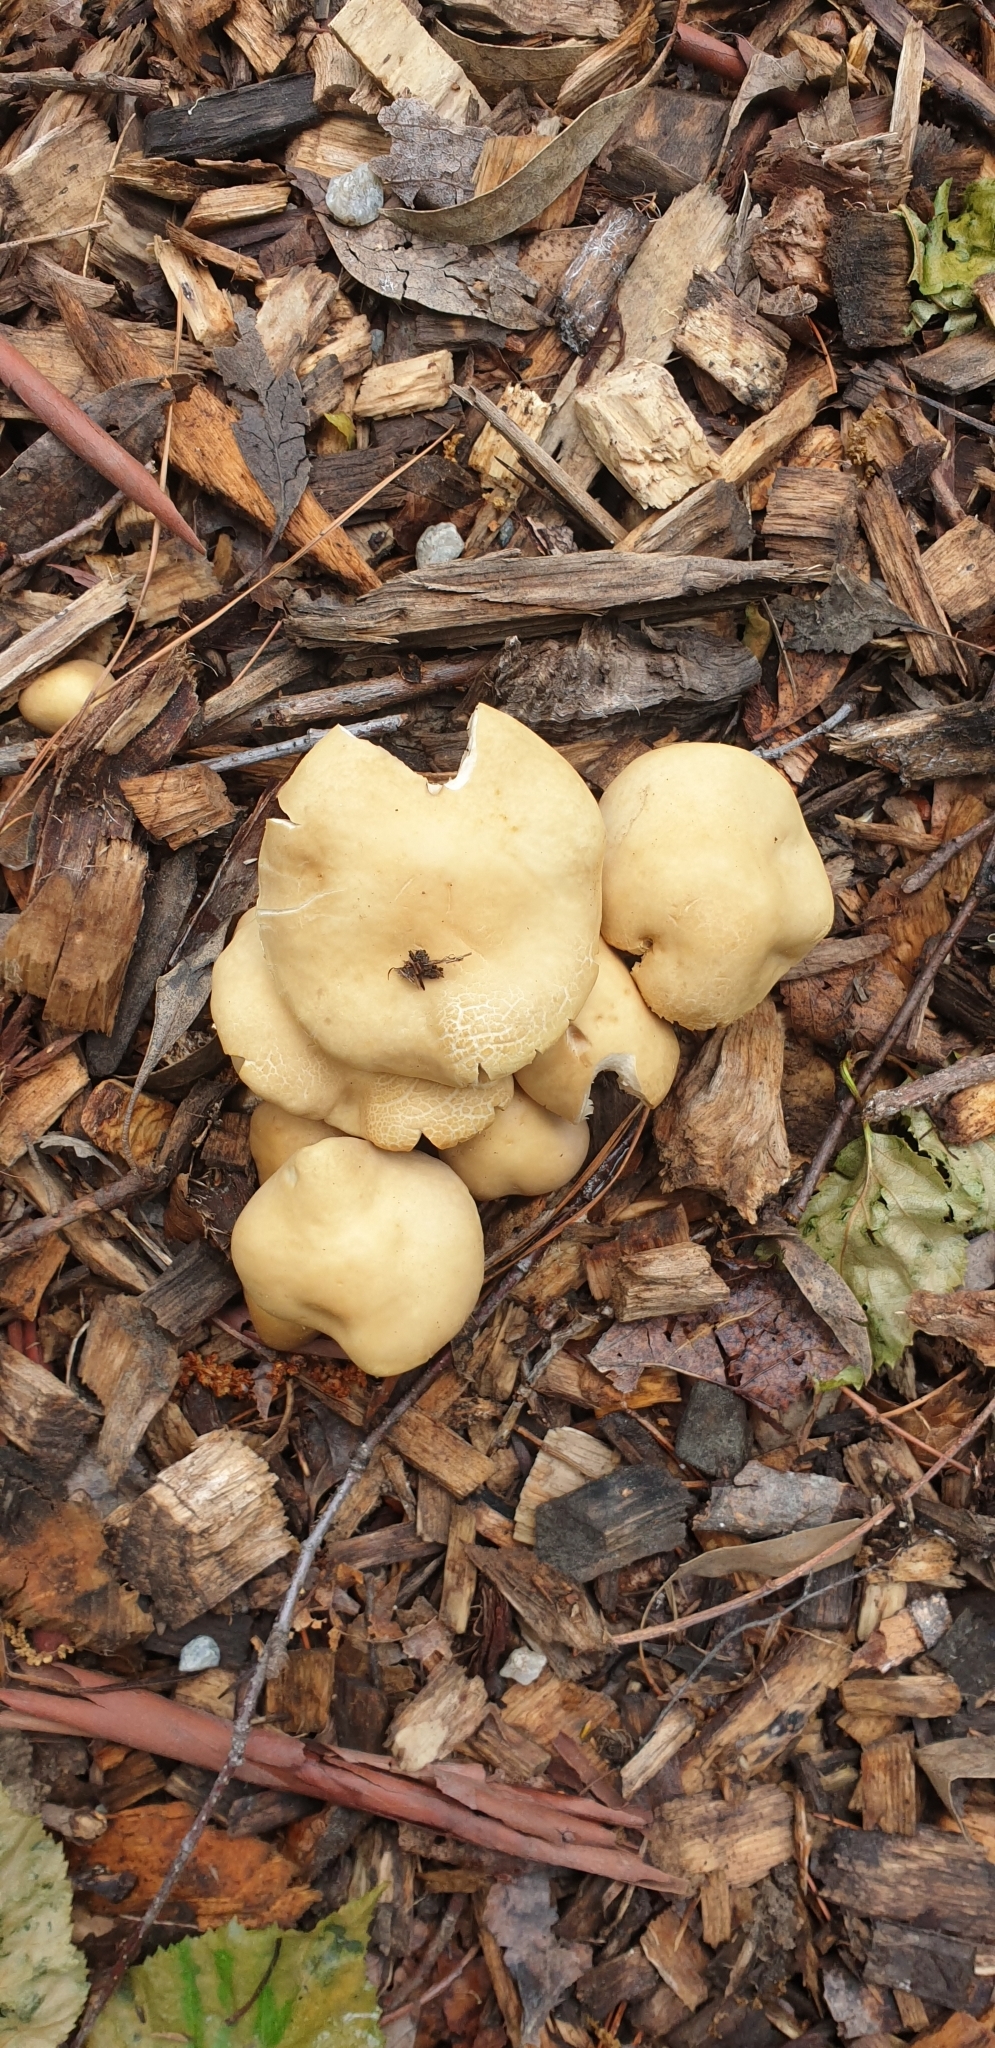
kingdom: Fungi
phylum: Basidiomycota
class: Agaricomycetes
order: Agaricales
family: Psathyrellaceae
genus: Candolleomyces
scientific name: Candolleomyces candolleanus
